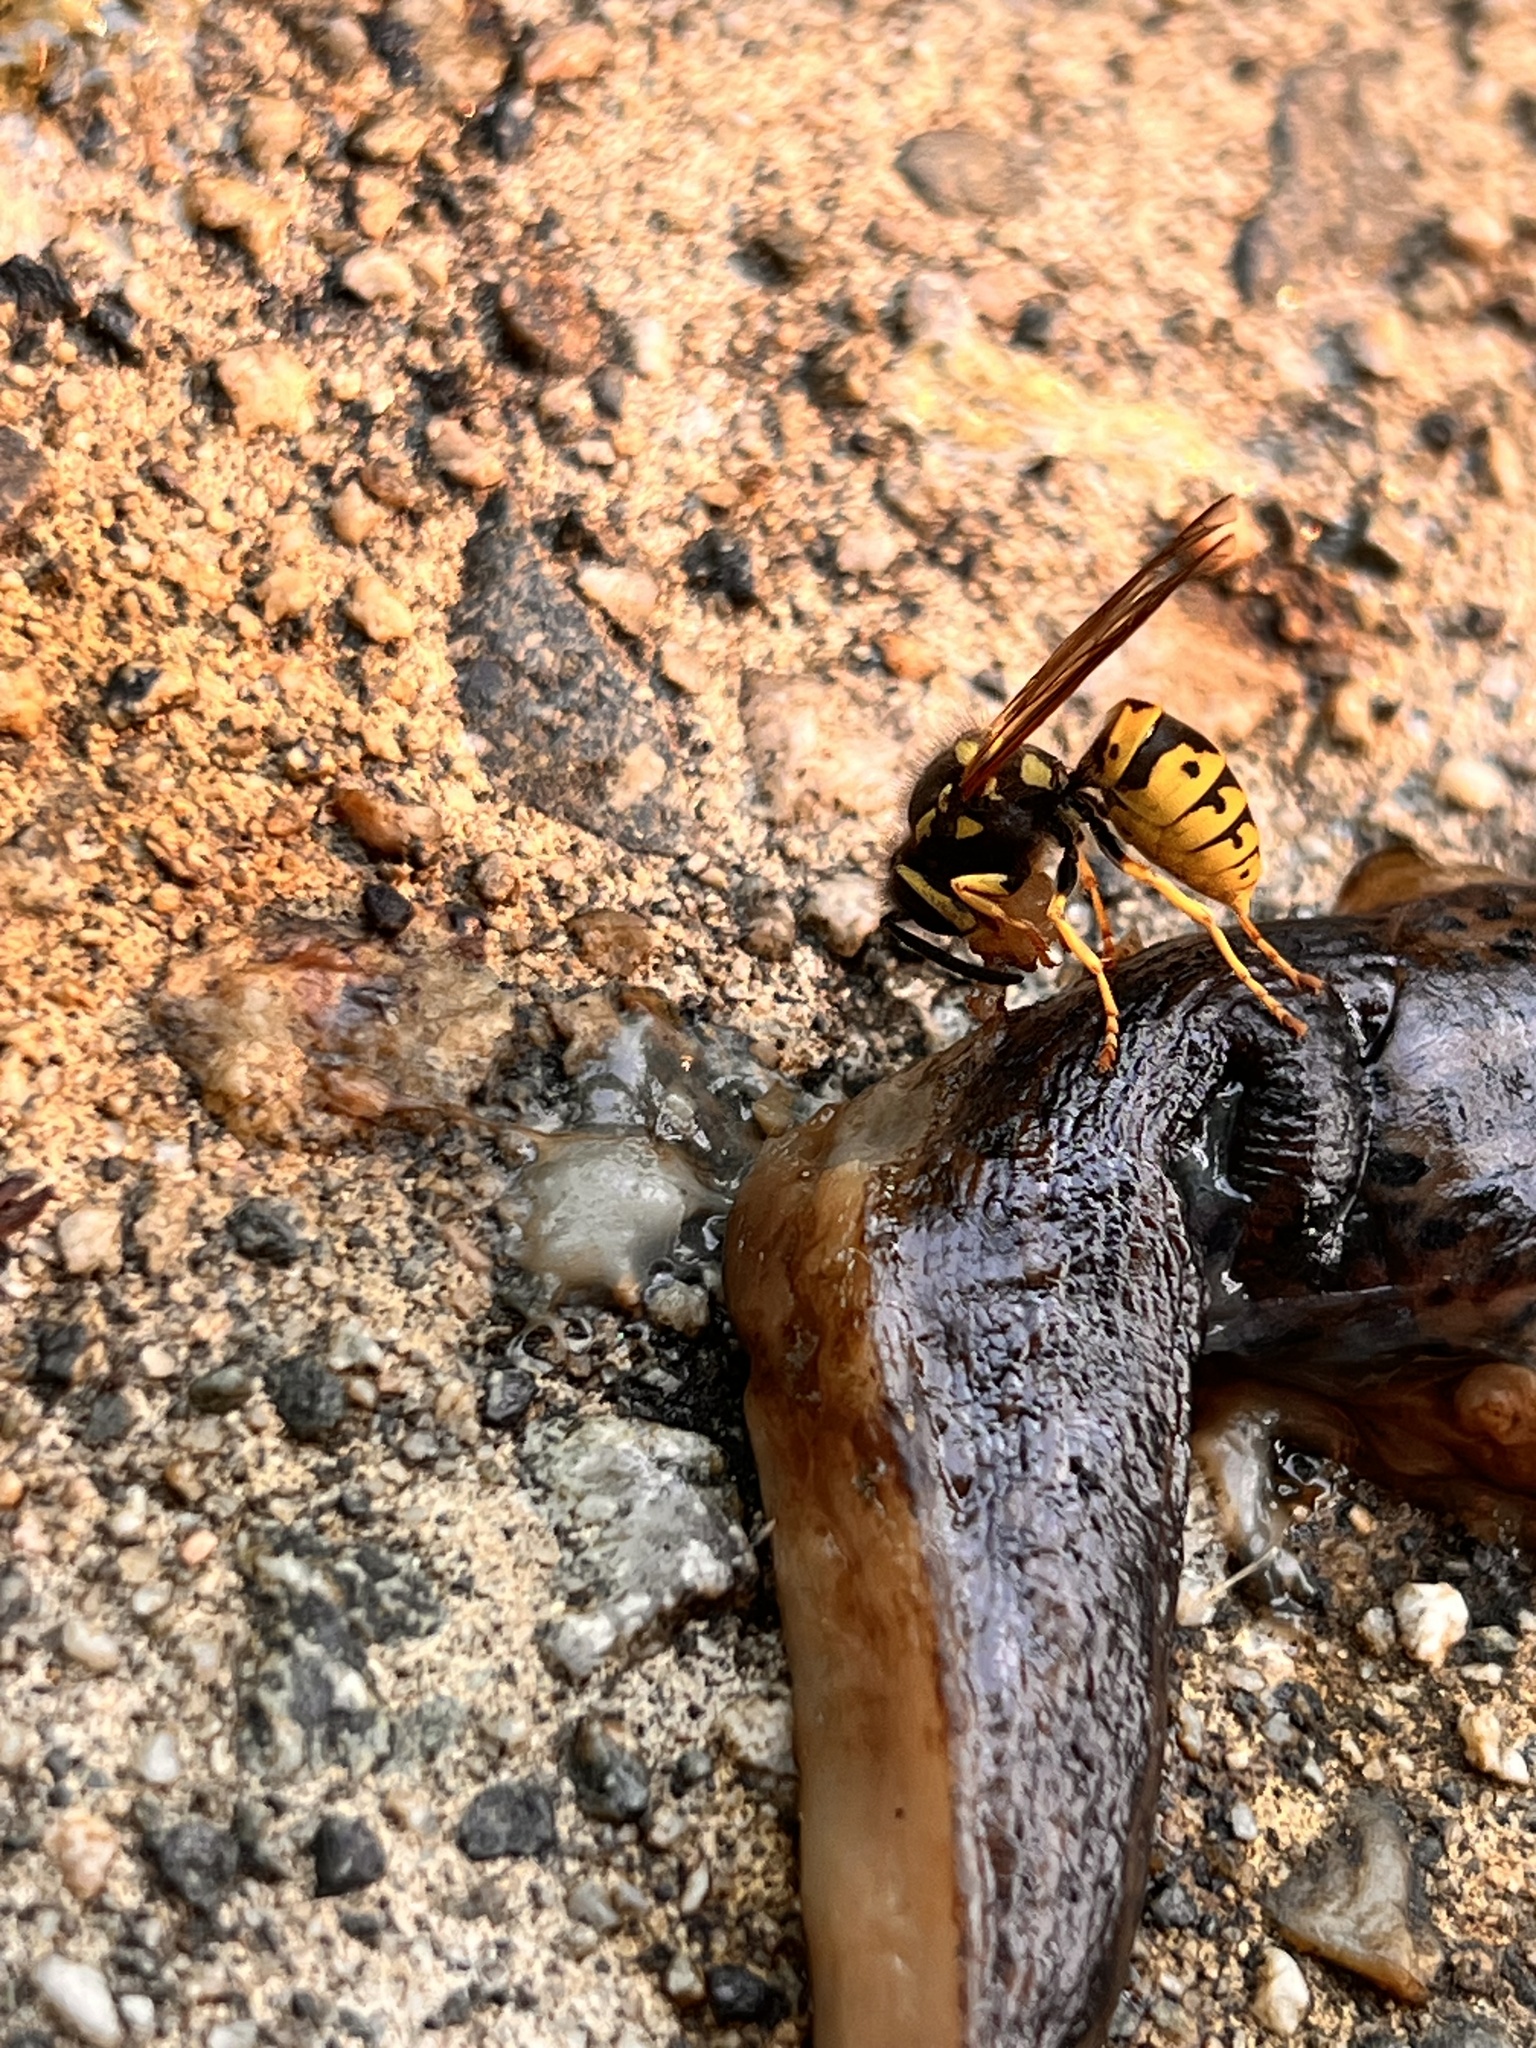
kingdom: Animalia
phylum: Arthropoda
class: Insecta
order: Hymenoptera
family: Vespidae
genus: Vespula
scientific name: Vespula
